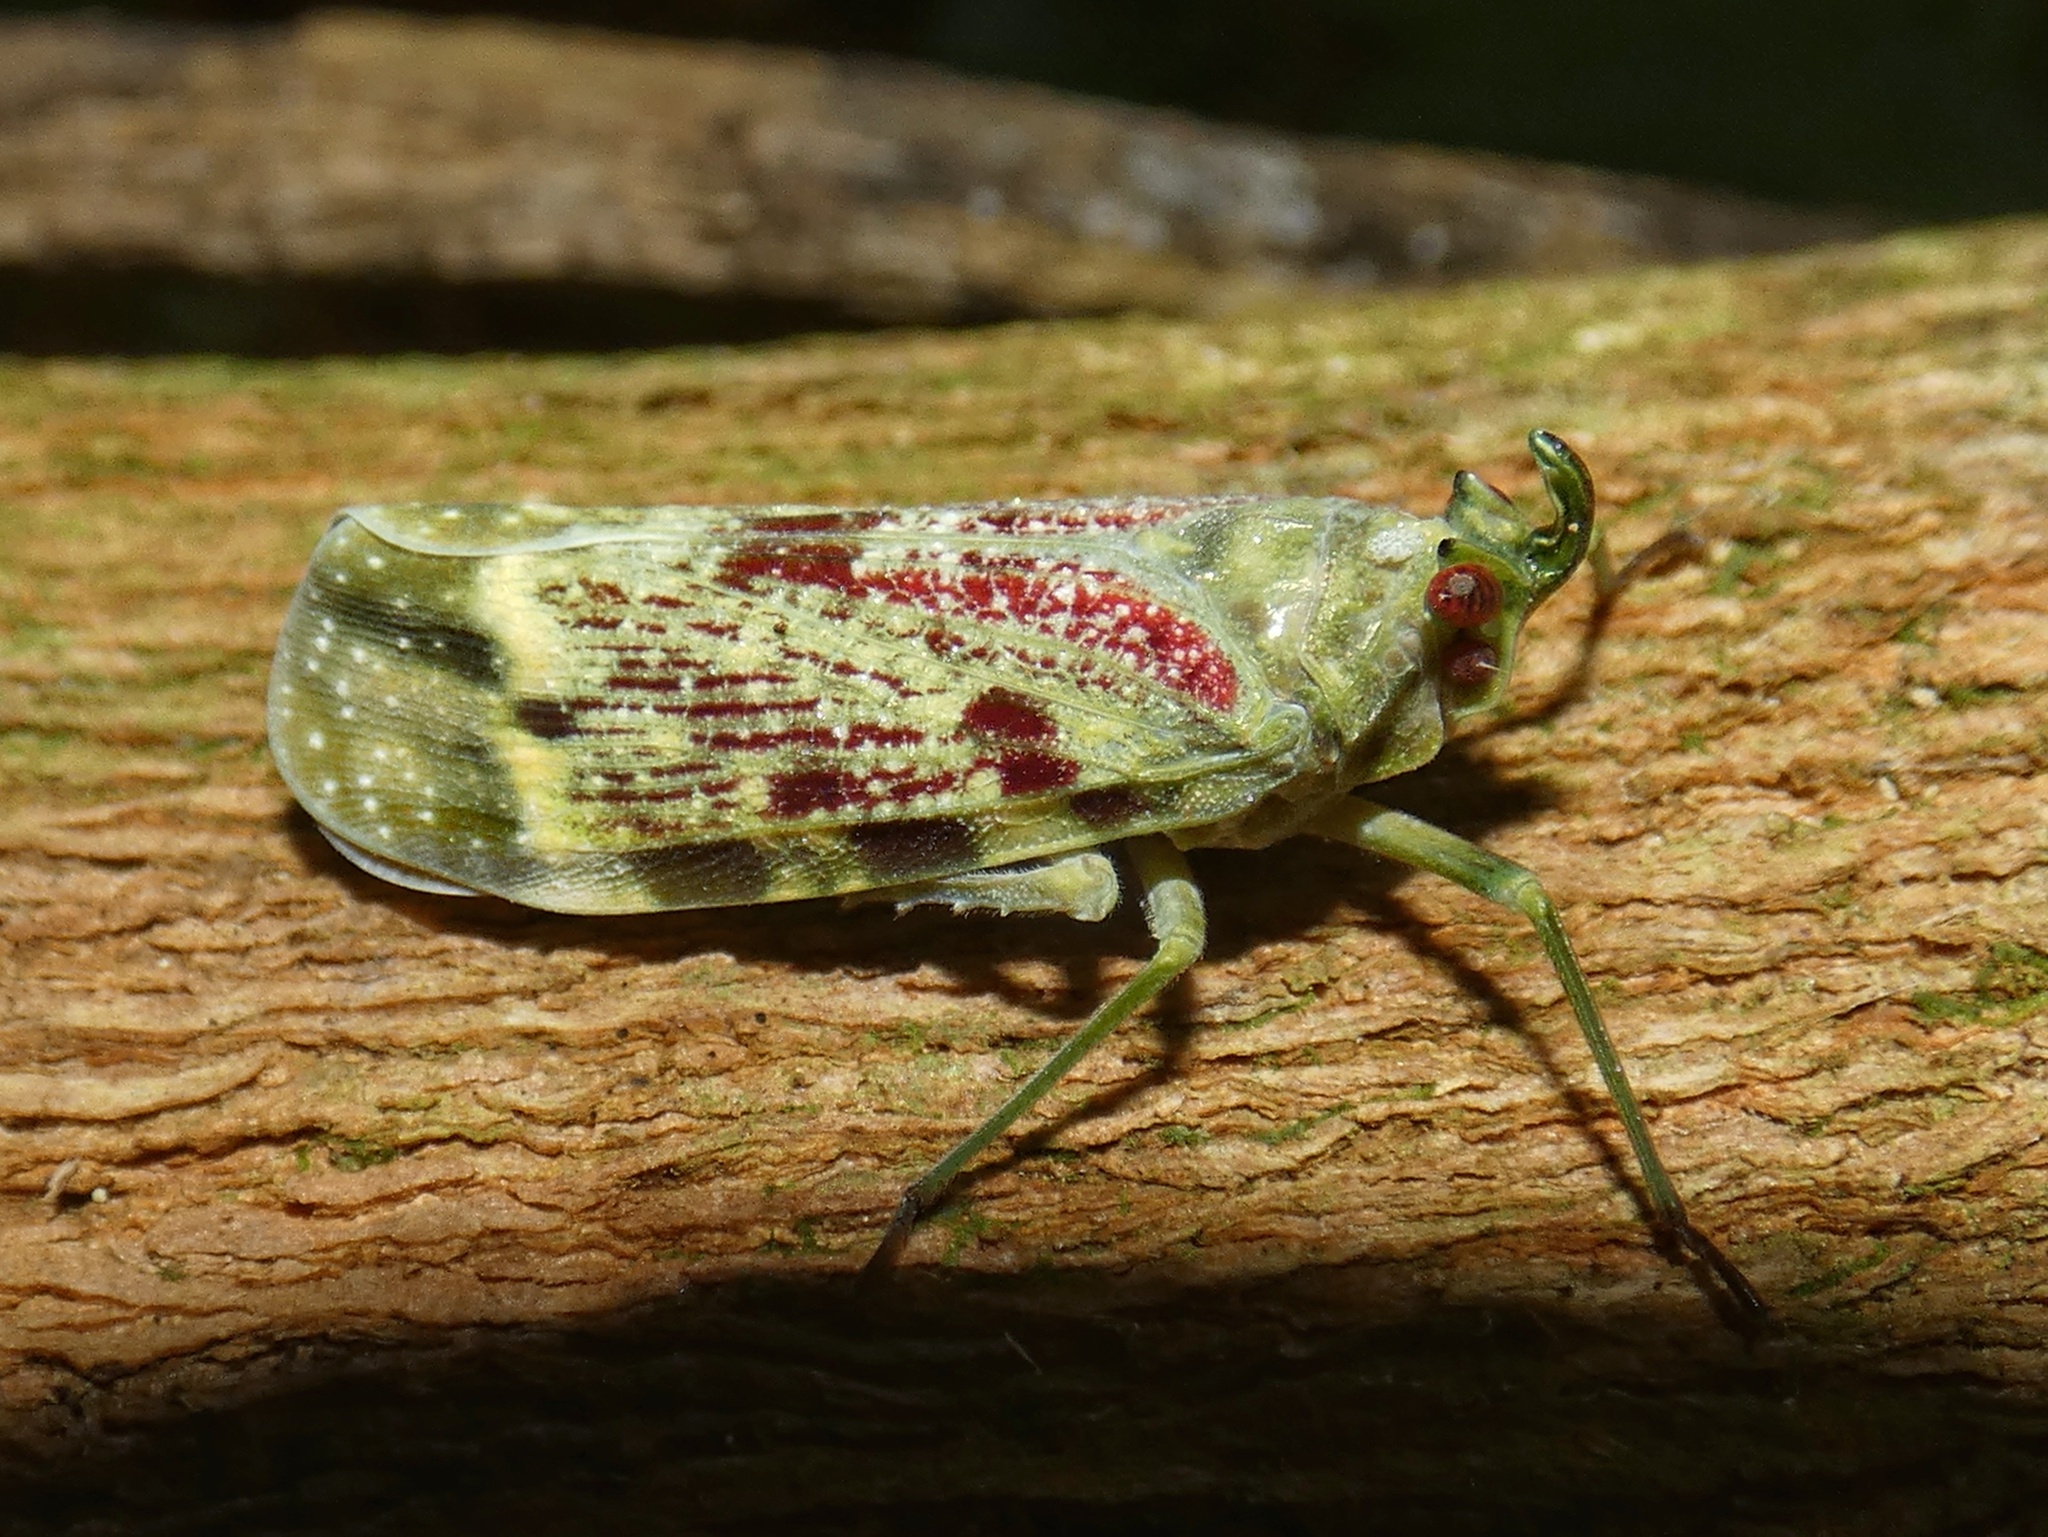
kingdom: Animalia
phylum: Arthropoda
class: Insecta
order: Hemiptera
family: Fulgoridae
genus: Enchophora
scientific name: Enchophora rosacea
